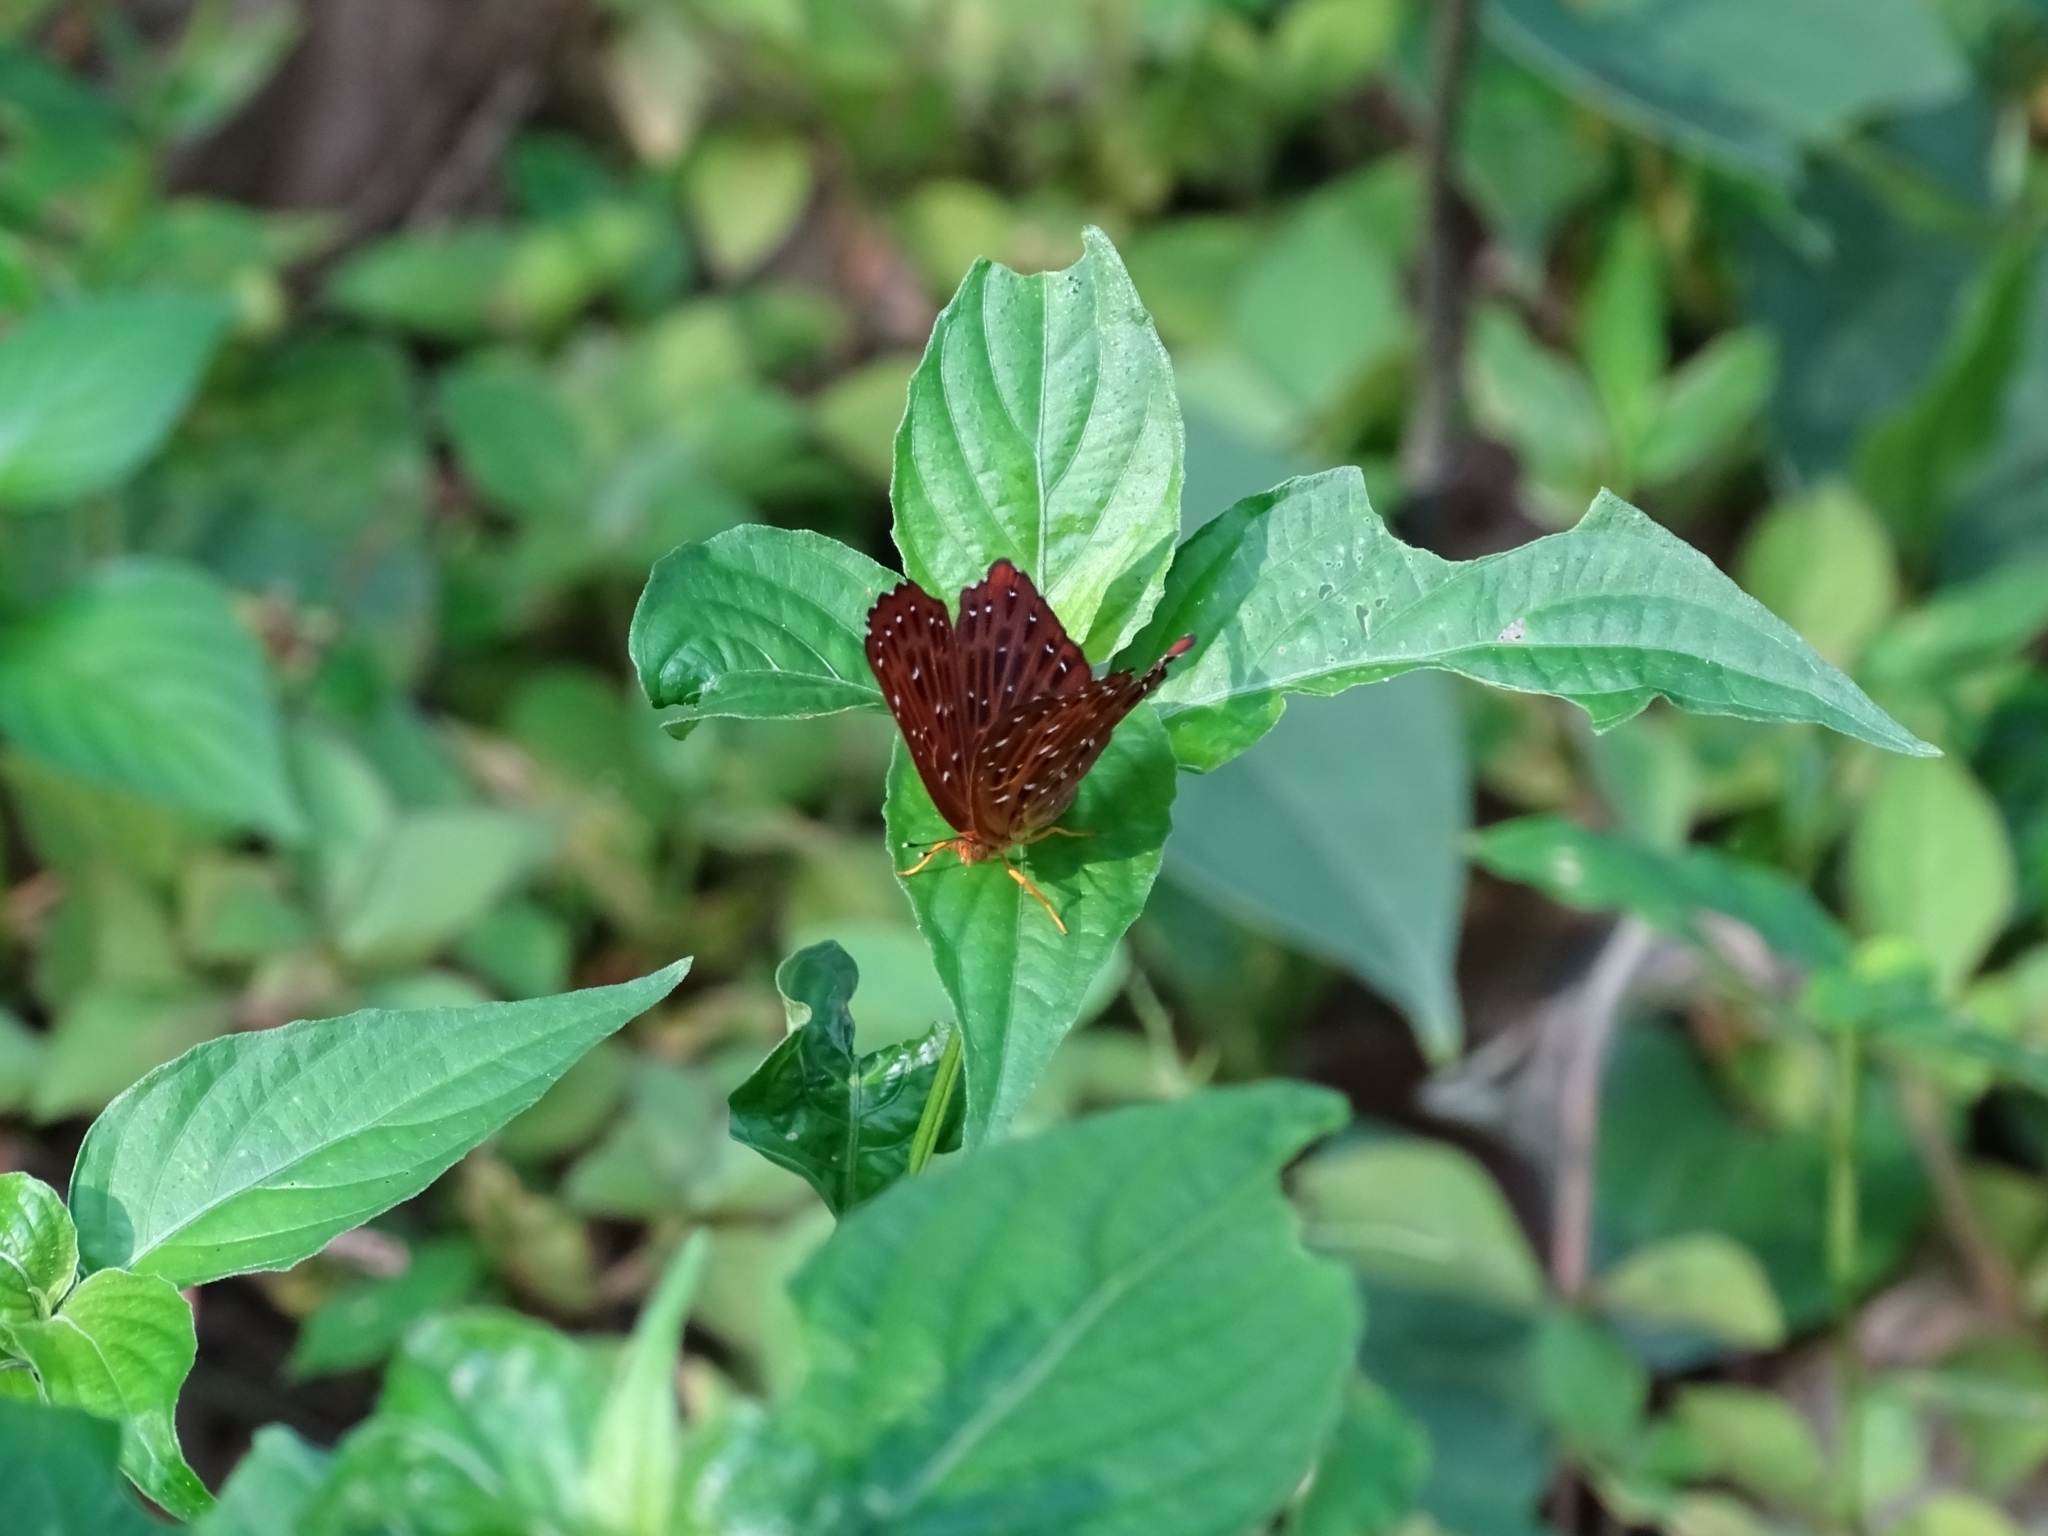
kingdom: Animalia
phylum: Arthropoda
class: Insecta
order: Lepidoptera
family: Riodinidae
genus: Zemeros
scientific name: Zemeros flegyas
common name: Punchinello
